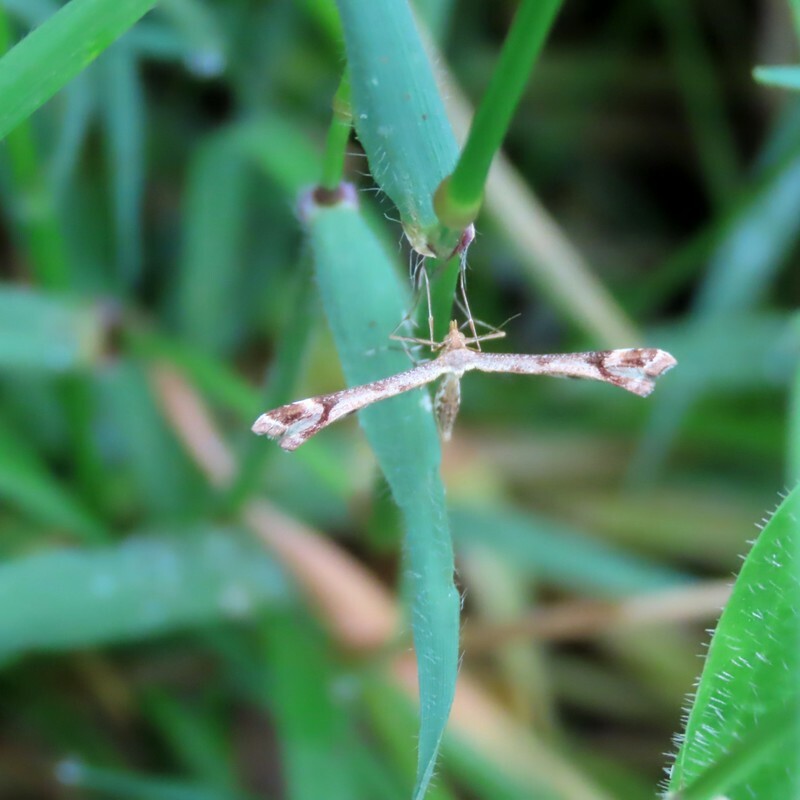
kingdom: Animalia
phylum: Arthropoda
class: Insecta
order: Lepidoptera
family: Pterophoridae
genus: Sinpunctiptilia
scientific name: Sinpunctiptilia emissalis
